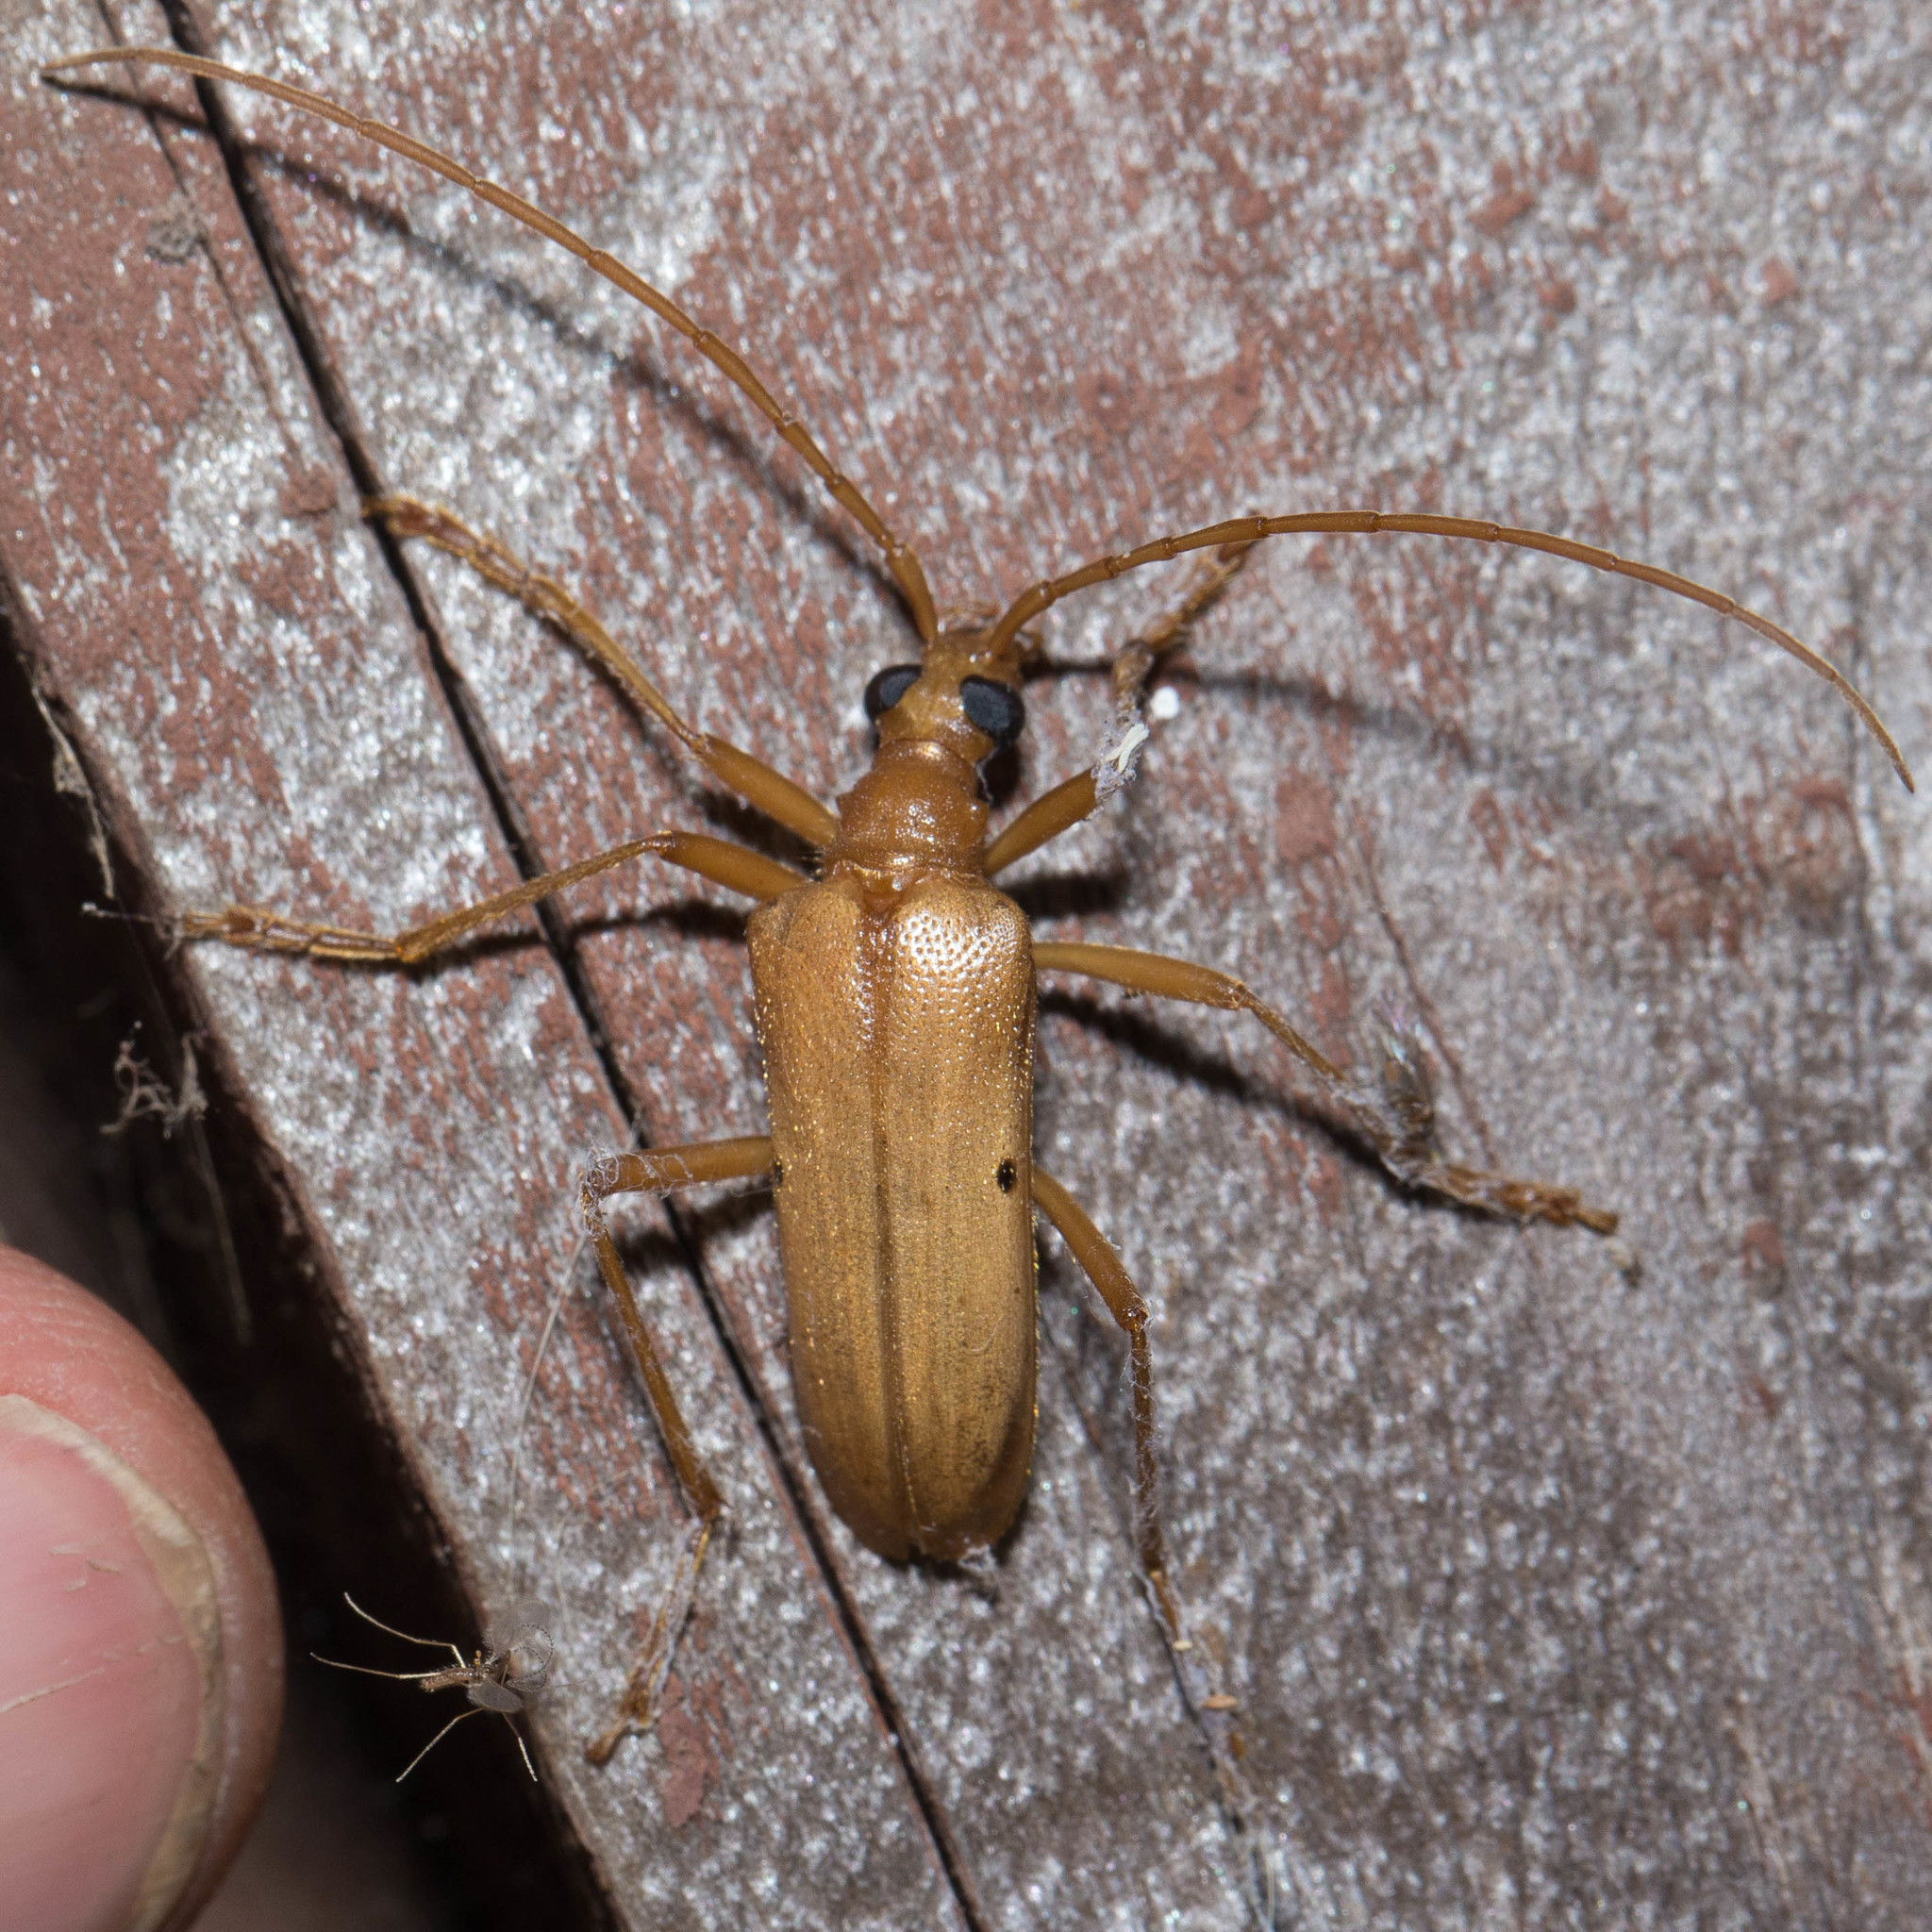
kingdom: Animalia
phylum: Arthropoda
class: Insecta
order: Coleoptera
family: Cerambycidae
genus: Centrodera
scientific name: Centrodera spurca
